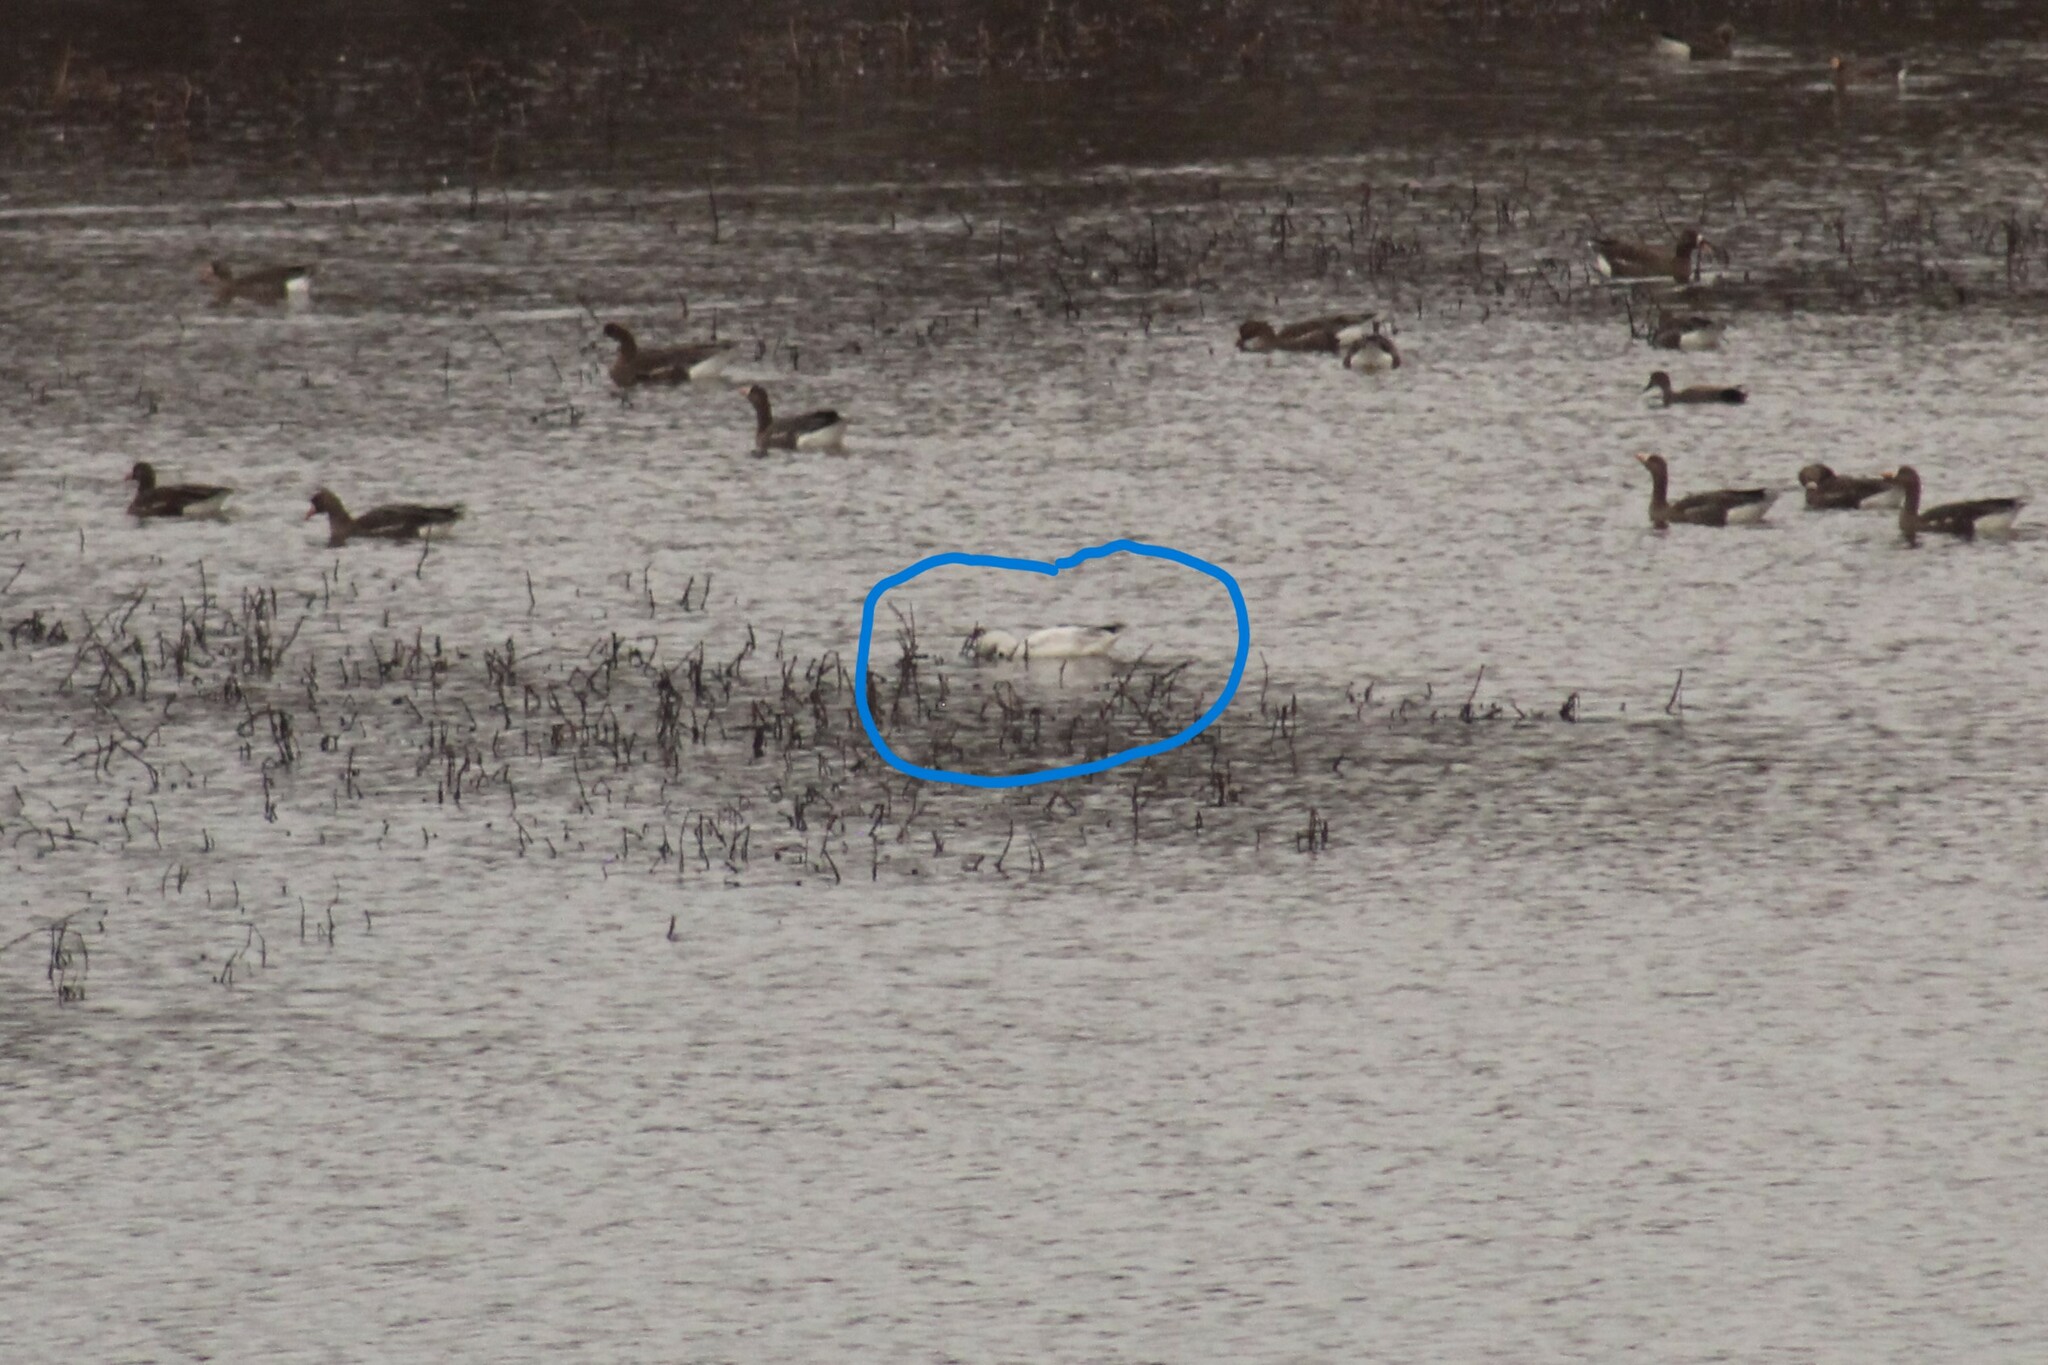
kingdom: Animalia
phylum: Chordata
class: Aves
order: Anseriformes
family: Anatidae
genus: Anser
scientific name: Anser caerulescens
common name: Snow goose
